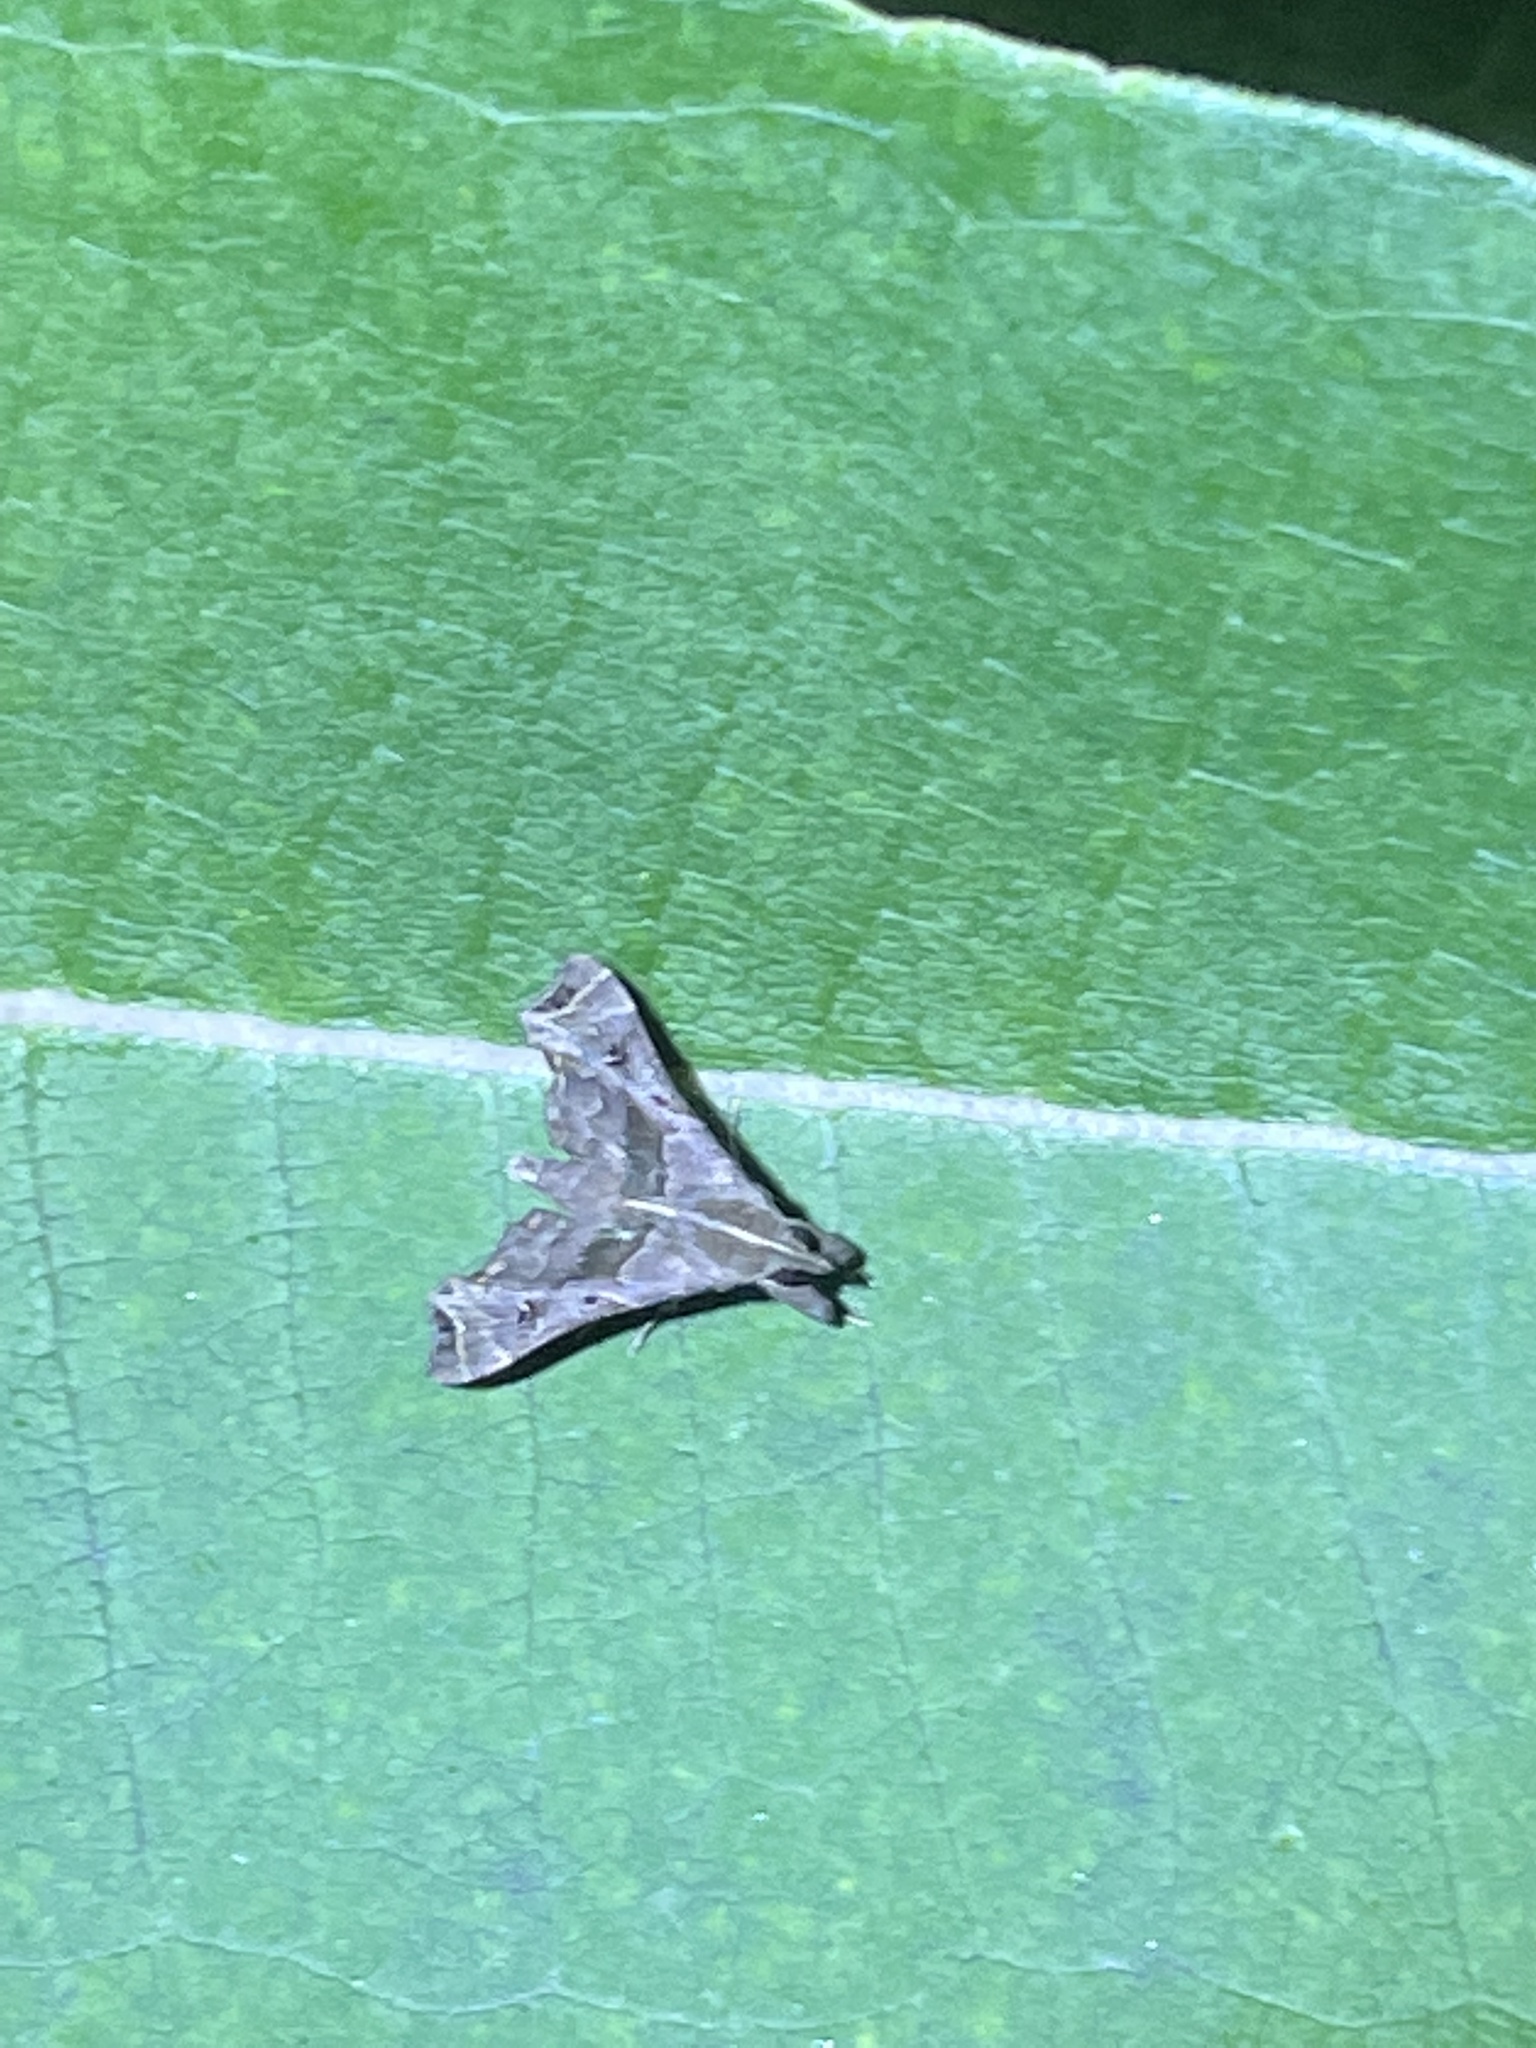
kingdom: Animalia
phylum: Arthropoda
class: Insecta
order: Lepidoptera
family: Erebidae
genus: Palthis
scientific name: Palthis asopialis
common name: Faint-spotted palthis moth
